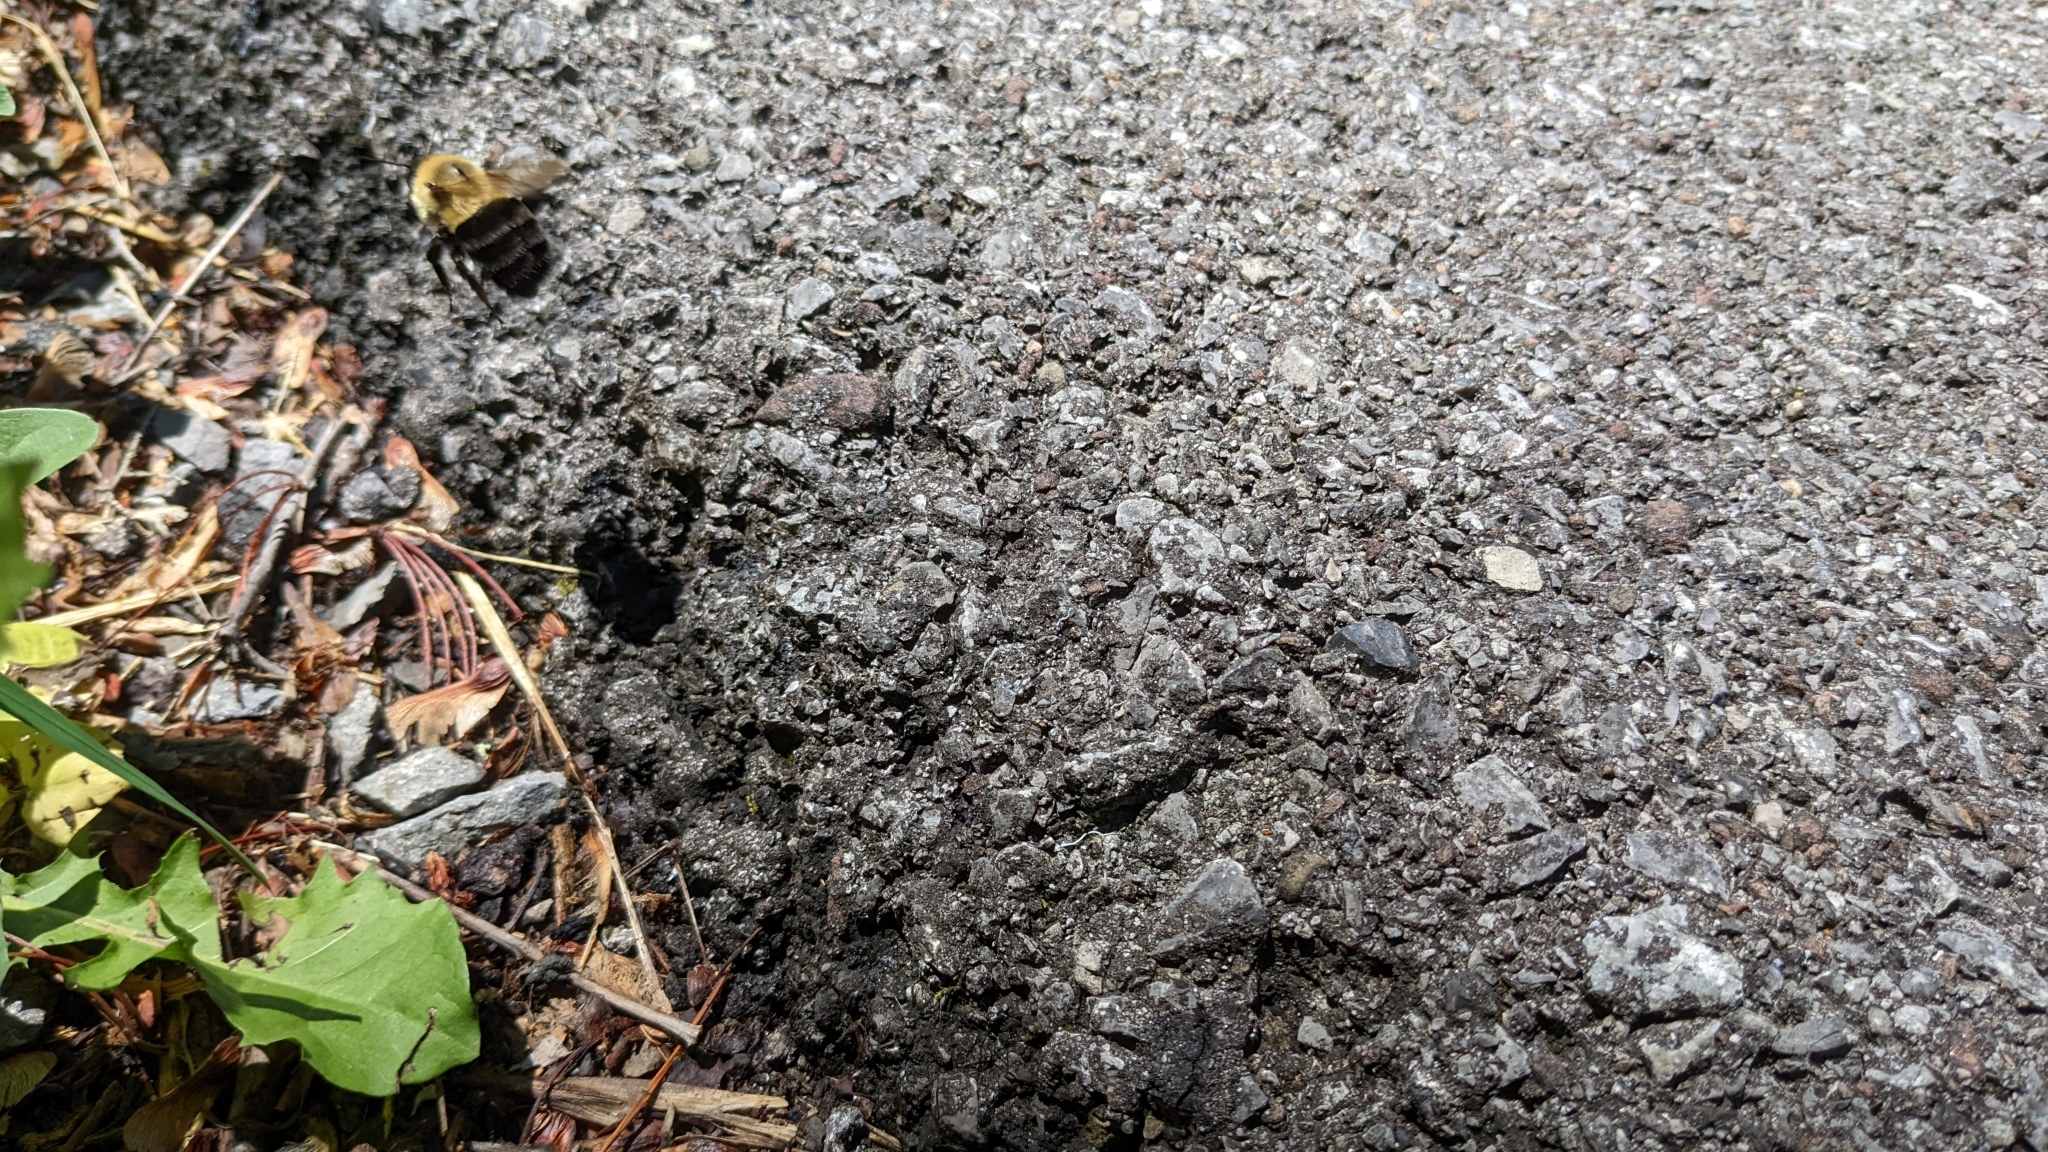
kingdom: Animalia
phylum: Arthropoda
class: Insecta
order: Hymenoptera
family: Apidae
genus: Bombus
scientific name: Bombus impatiens
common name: Common eastern bumble bee
